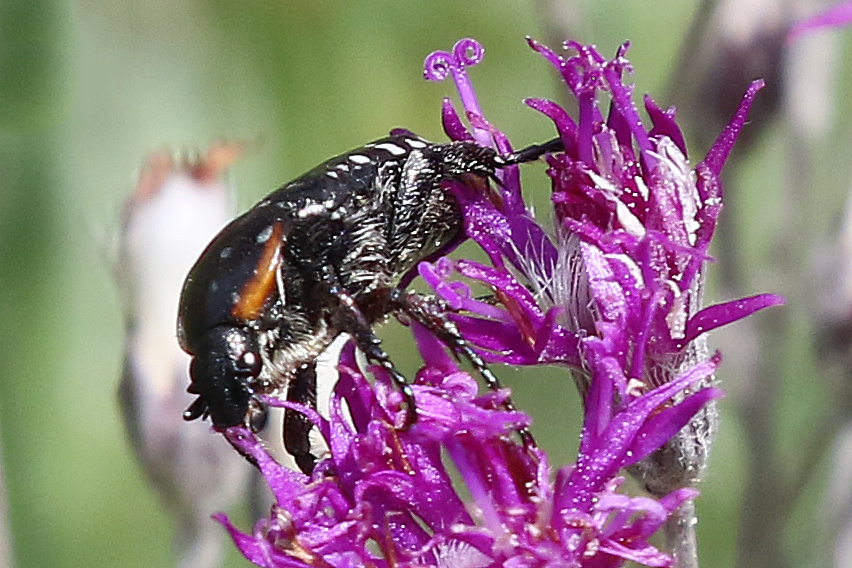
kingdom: Animalia
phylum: Arthropoda
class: Insecta
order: Coleoptera
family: Scarabaeidae
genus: Oxythyrea
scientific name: Oxythyrea
